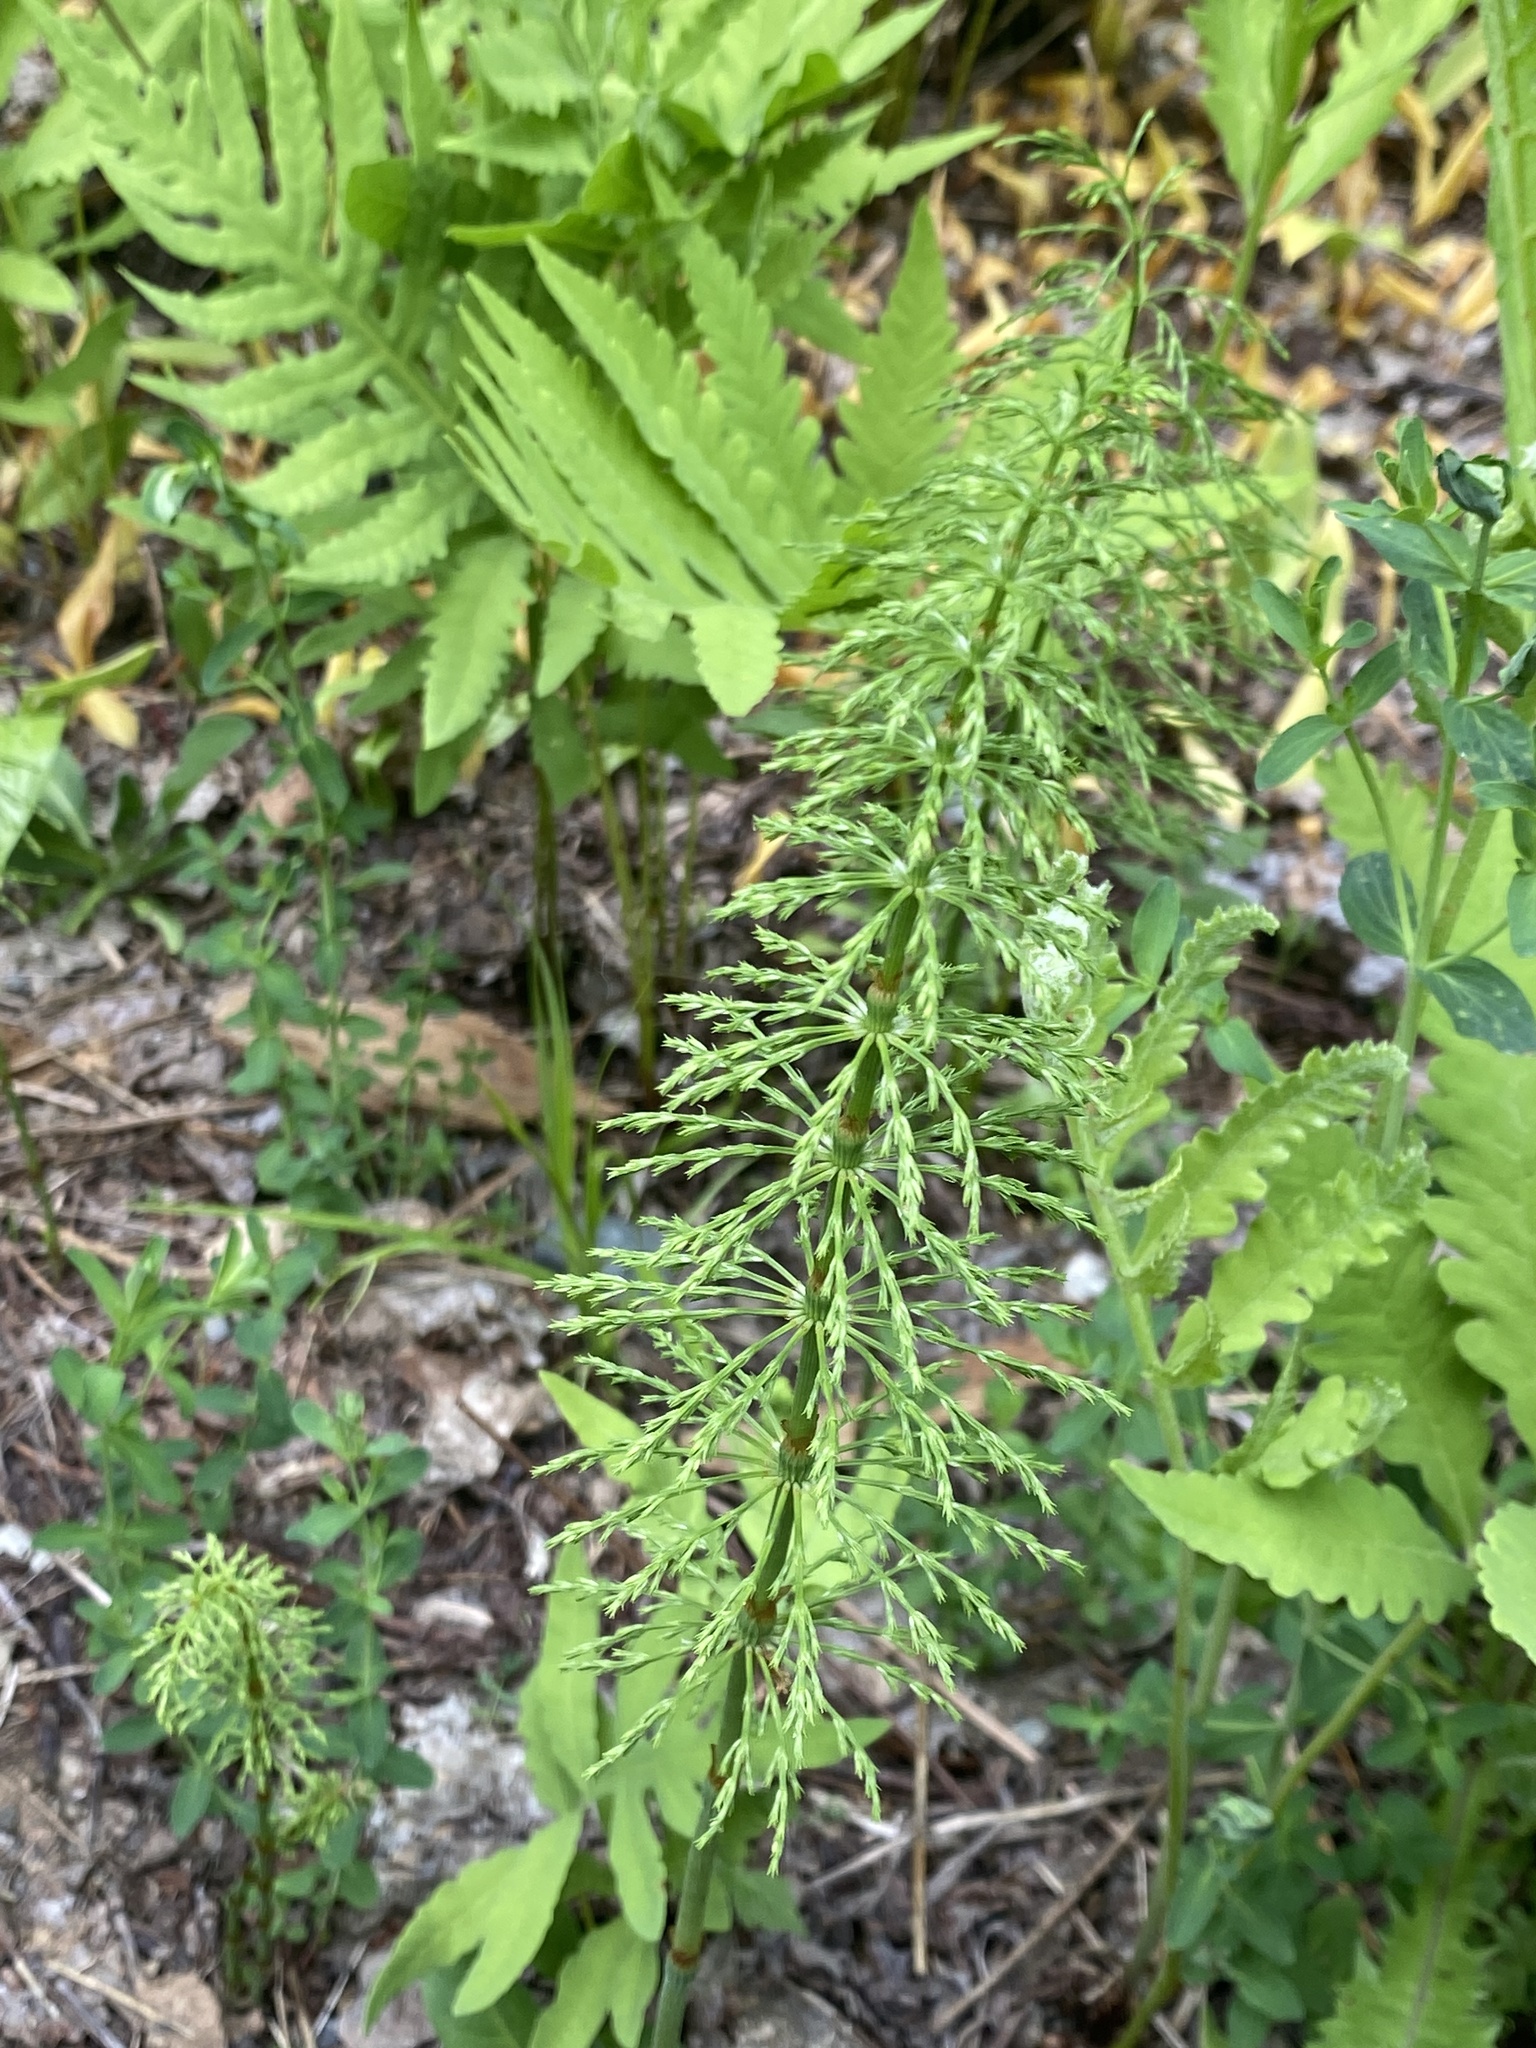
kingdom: Plantae
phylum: Tracheophyta
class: Polypodiopsida
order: Equisetales
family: Equisetaceae
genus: Equisetum
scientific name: Equisetum sylvaticum
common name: Wood horsetail
